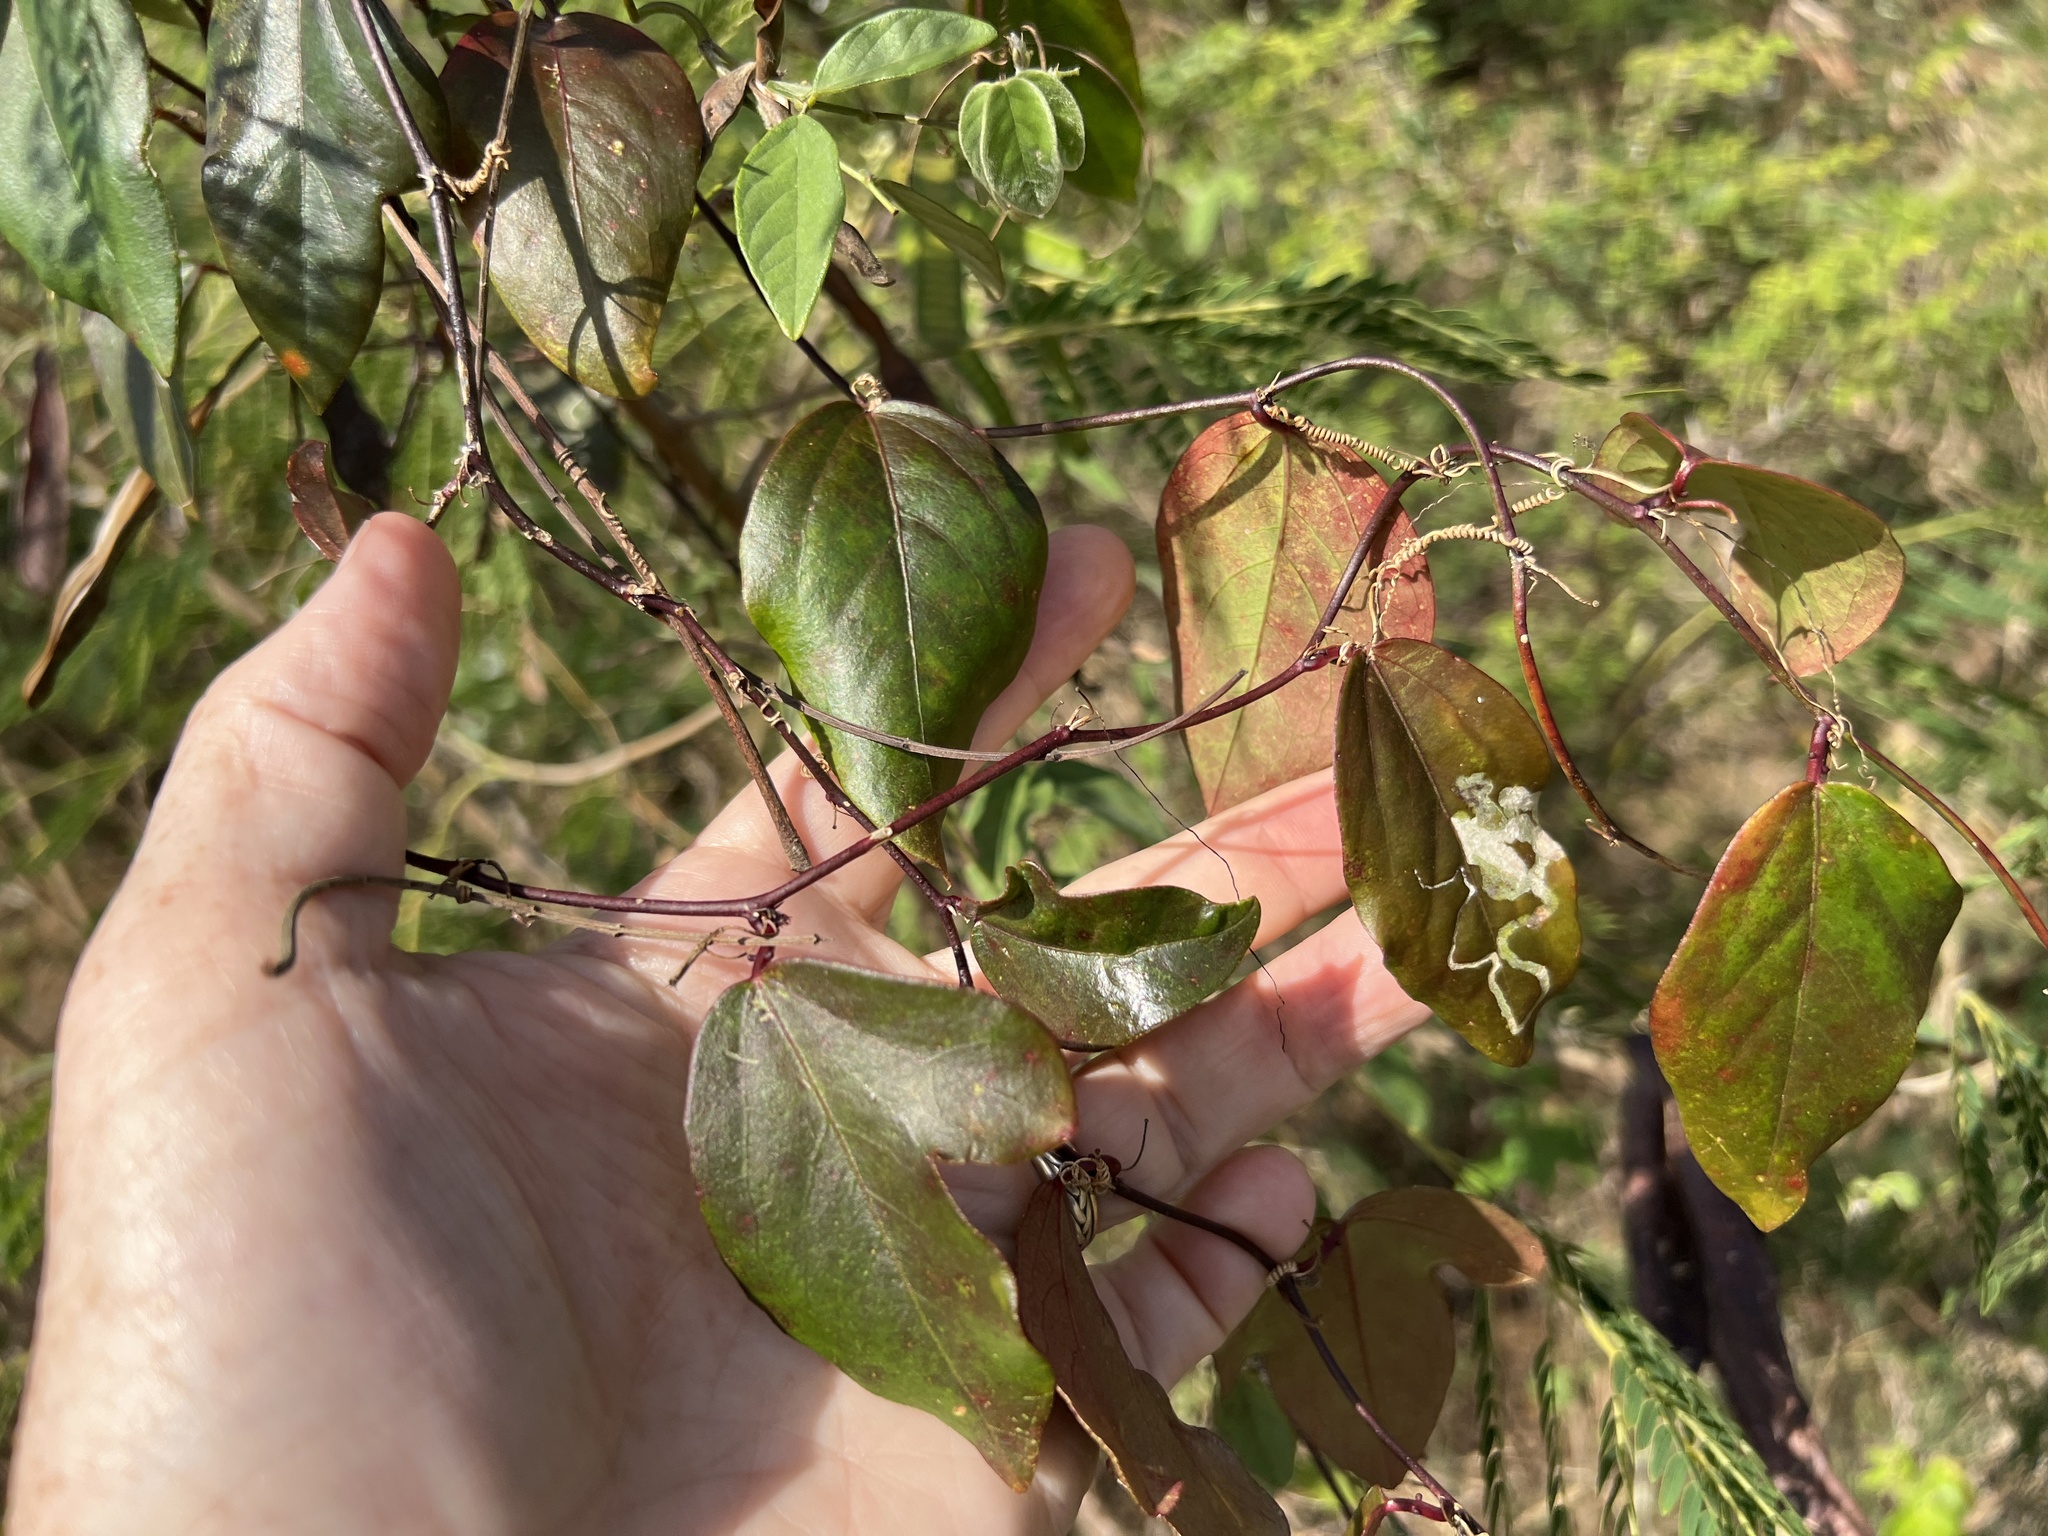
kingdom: Plantae
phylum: Tracheophyta
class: Magnoliopsida
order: Malpighiales
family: Passifloraceae
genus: Passiflora
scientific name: Passiflora pallida
